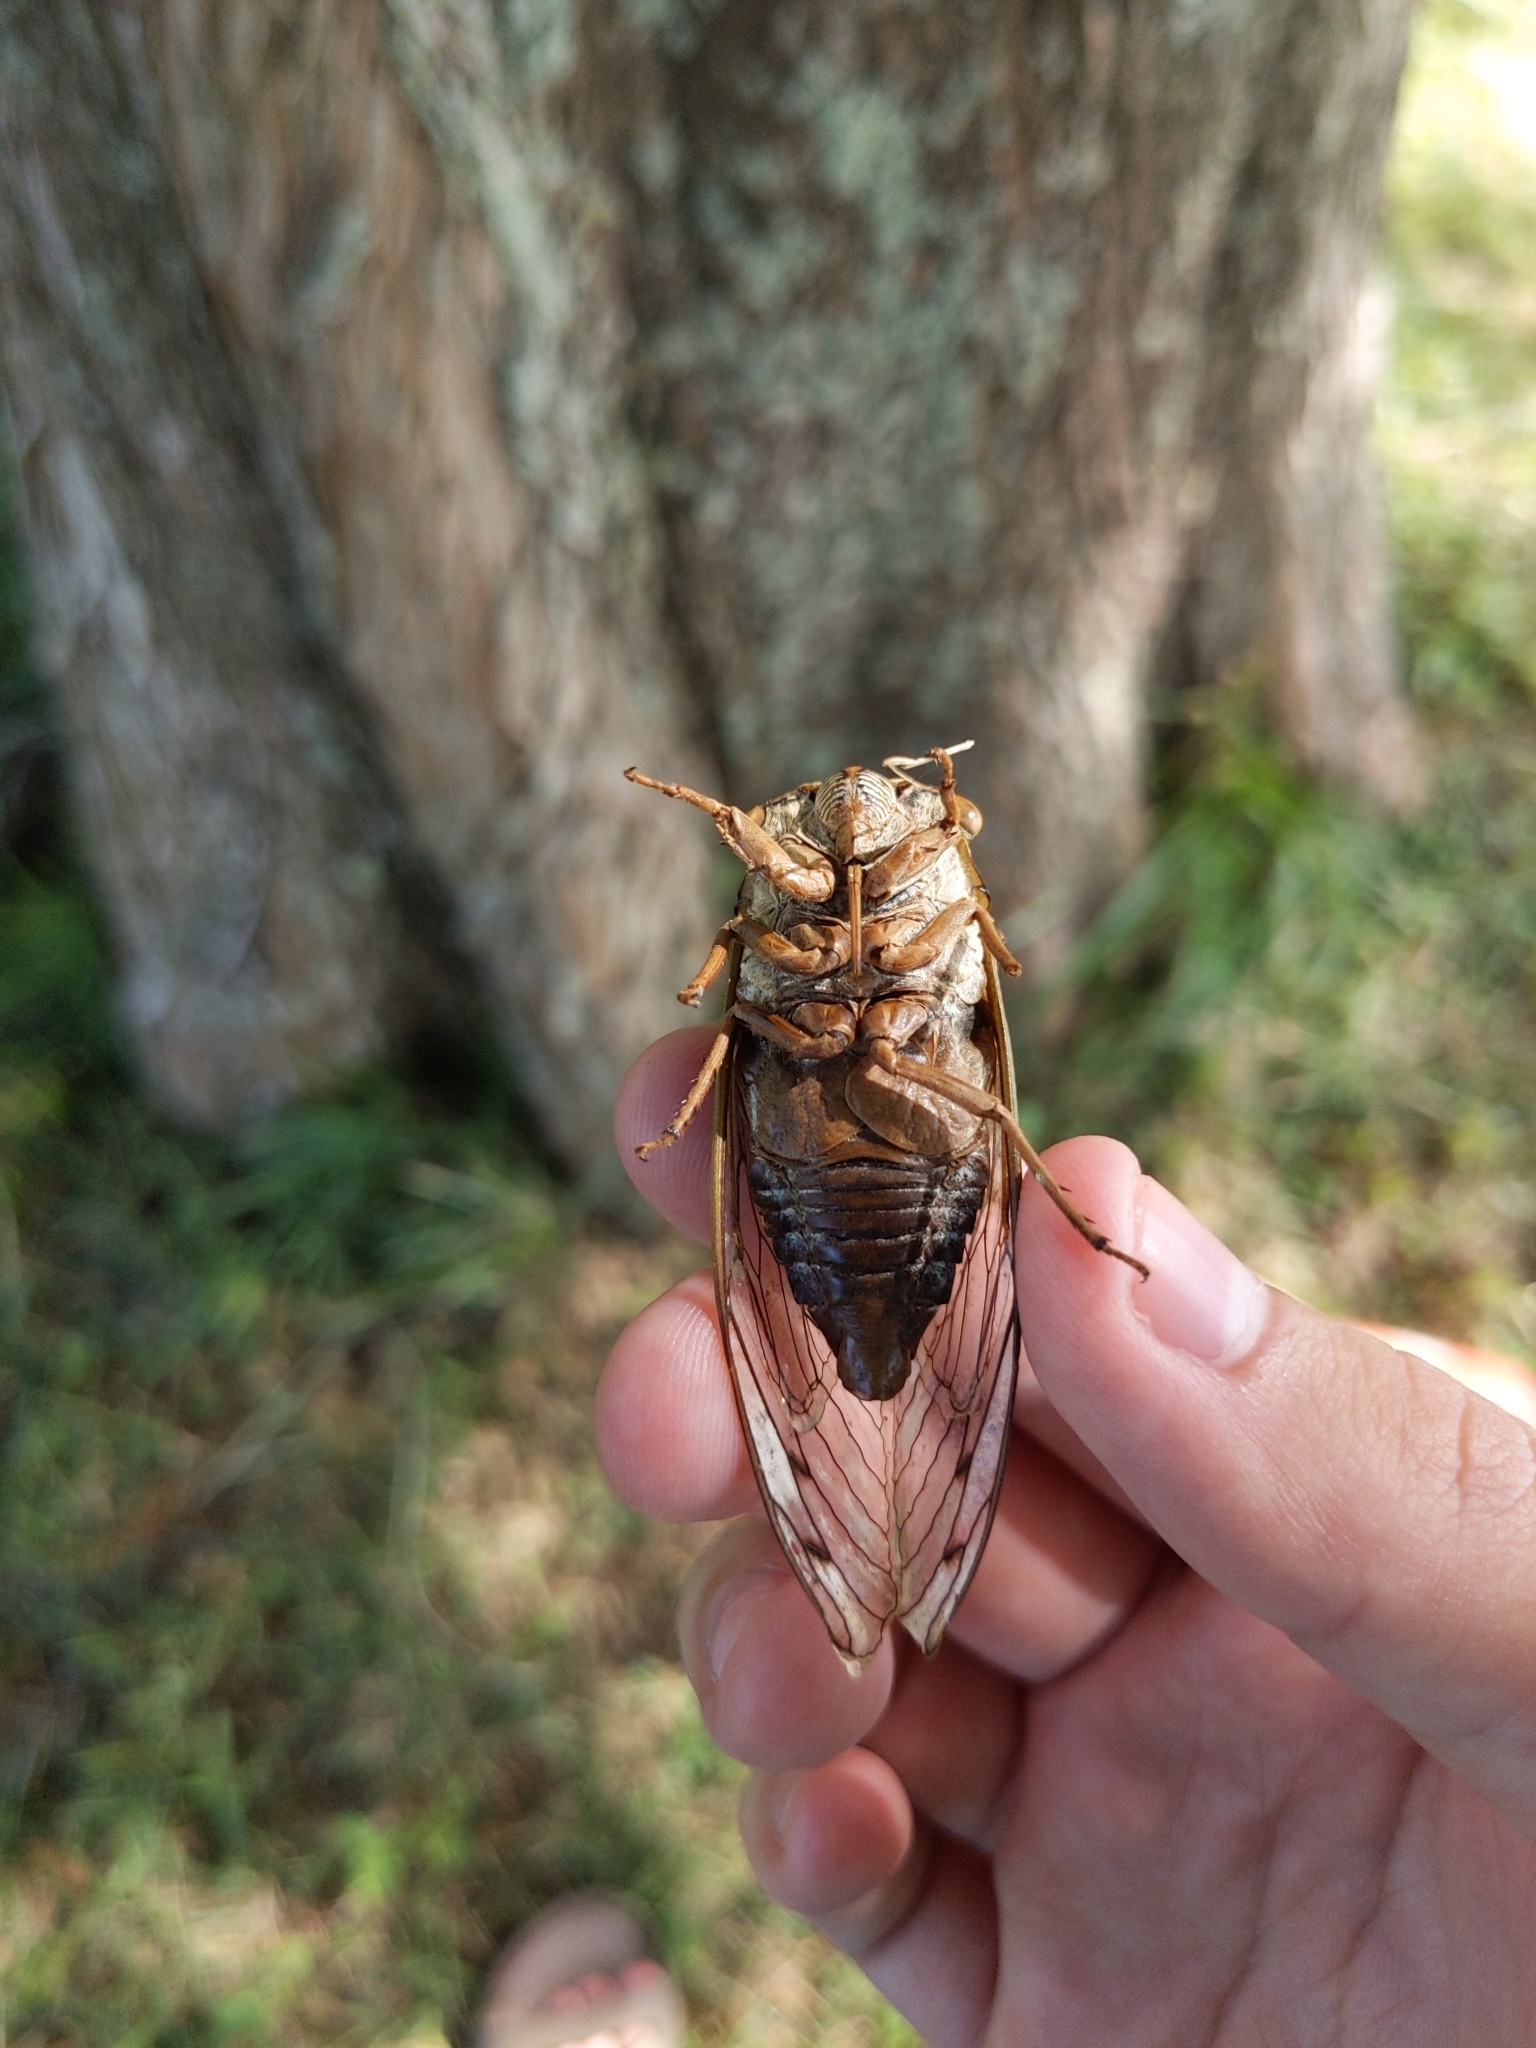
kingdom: Animalia
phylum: Arthropoda
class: Insecta
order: Hemiptera
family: Cicadidae
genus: Megatibicen
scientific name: Megatibicen resh
